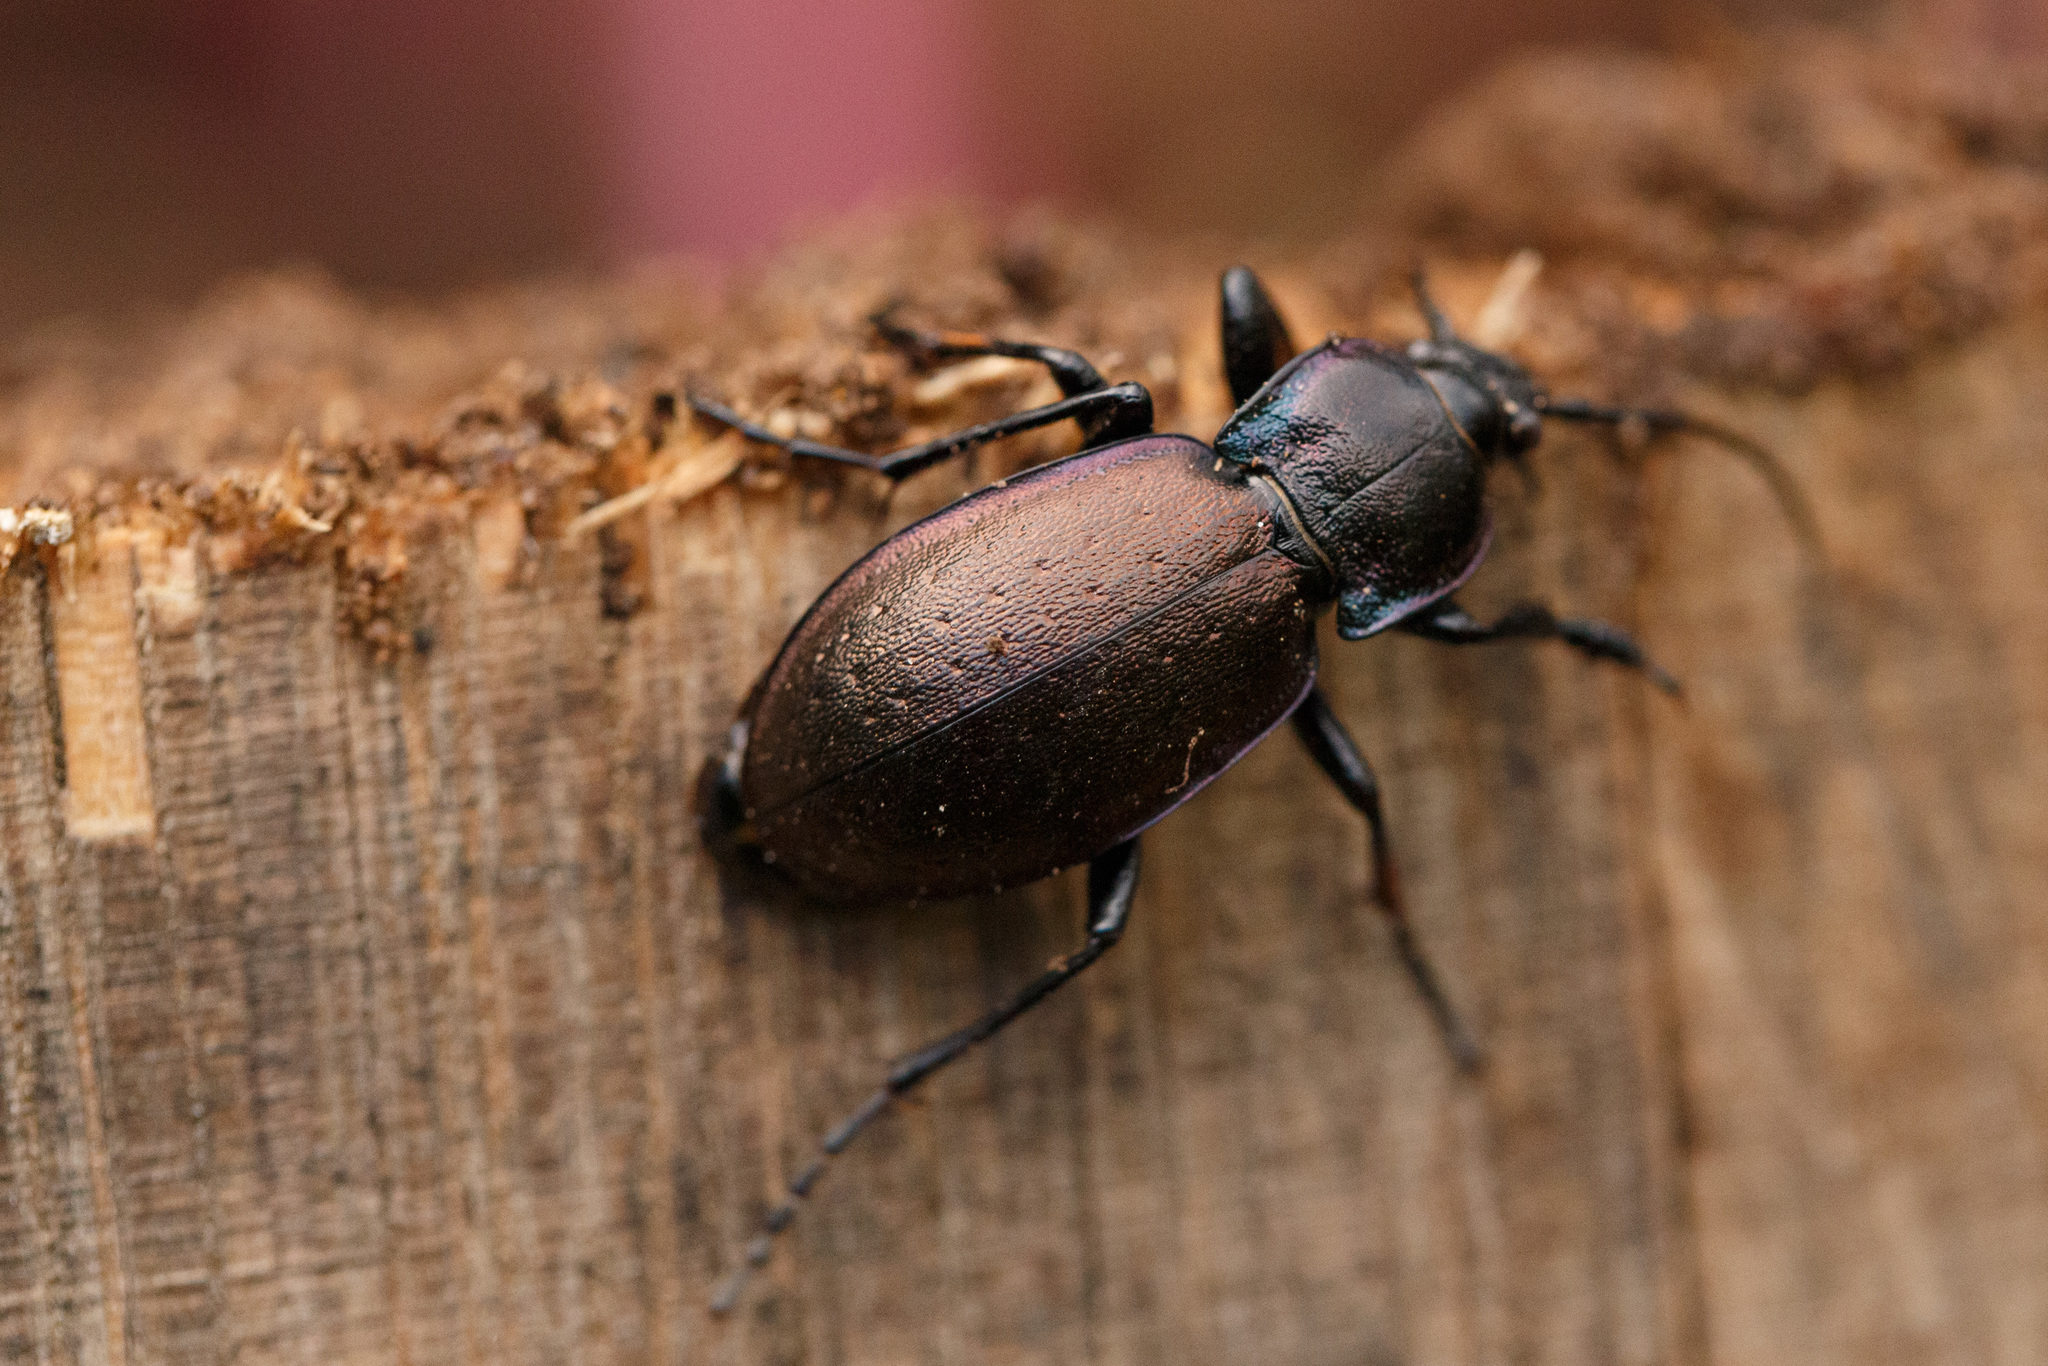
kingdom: Animalia
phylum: Arthropoda
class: Insecta
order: Coleoptera
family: Carabidae
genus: Carabus
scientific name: Carabus nemoralis
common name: European ground beetle
